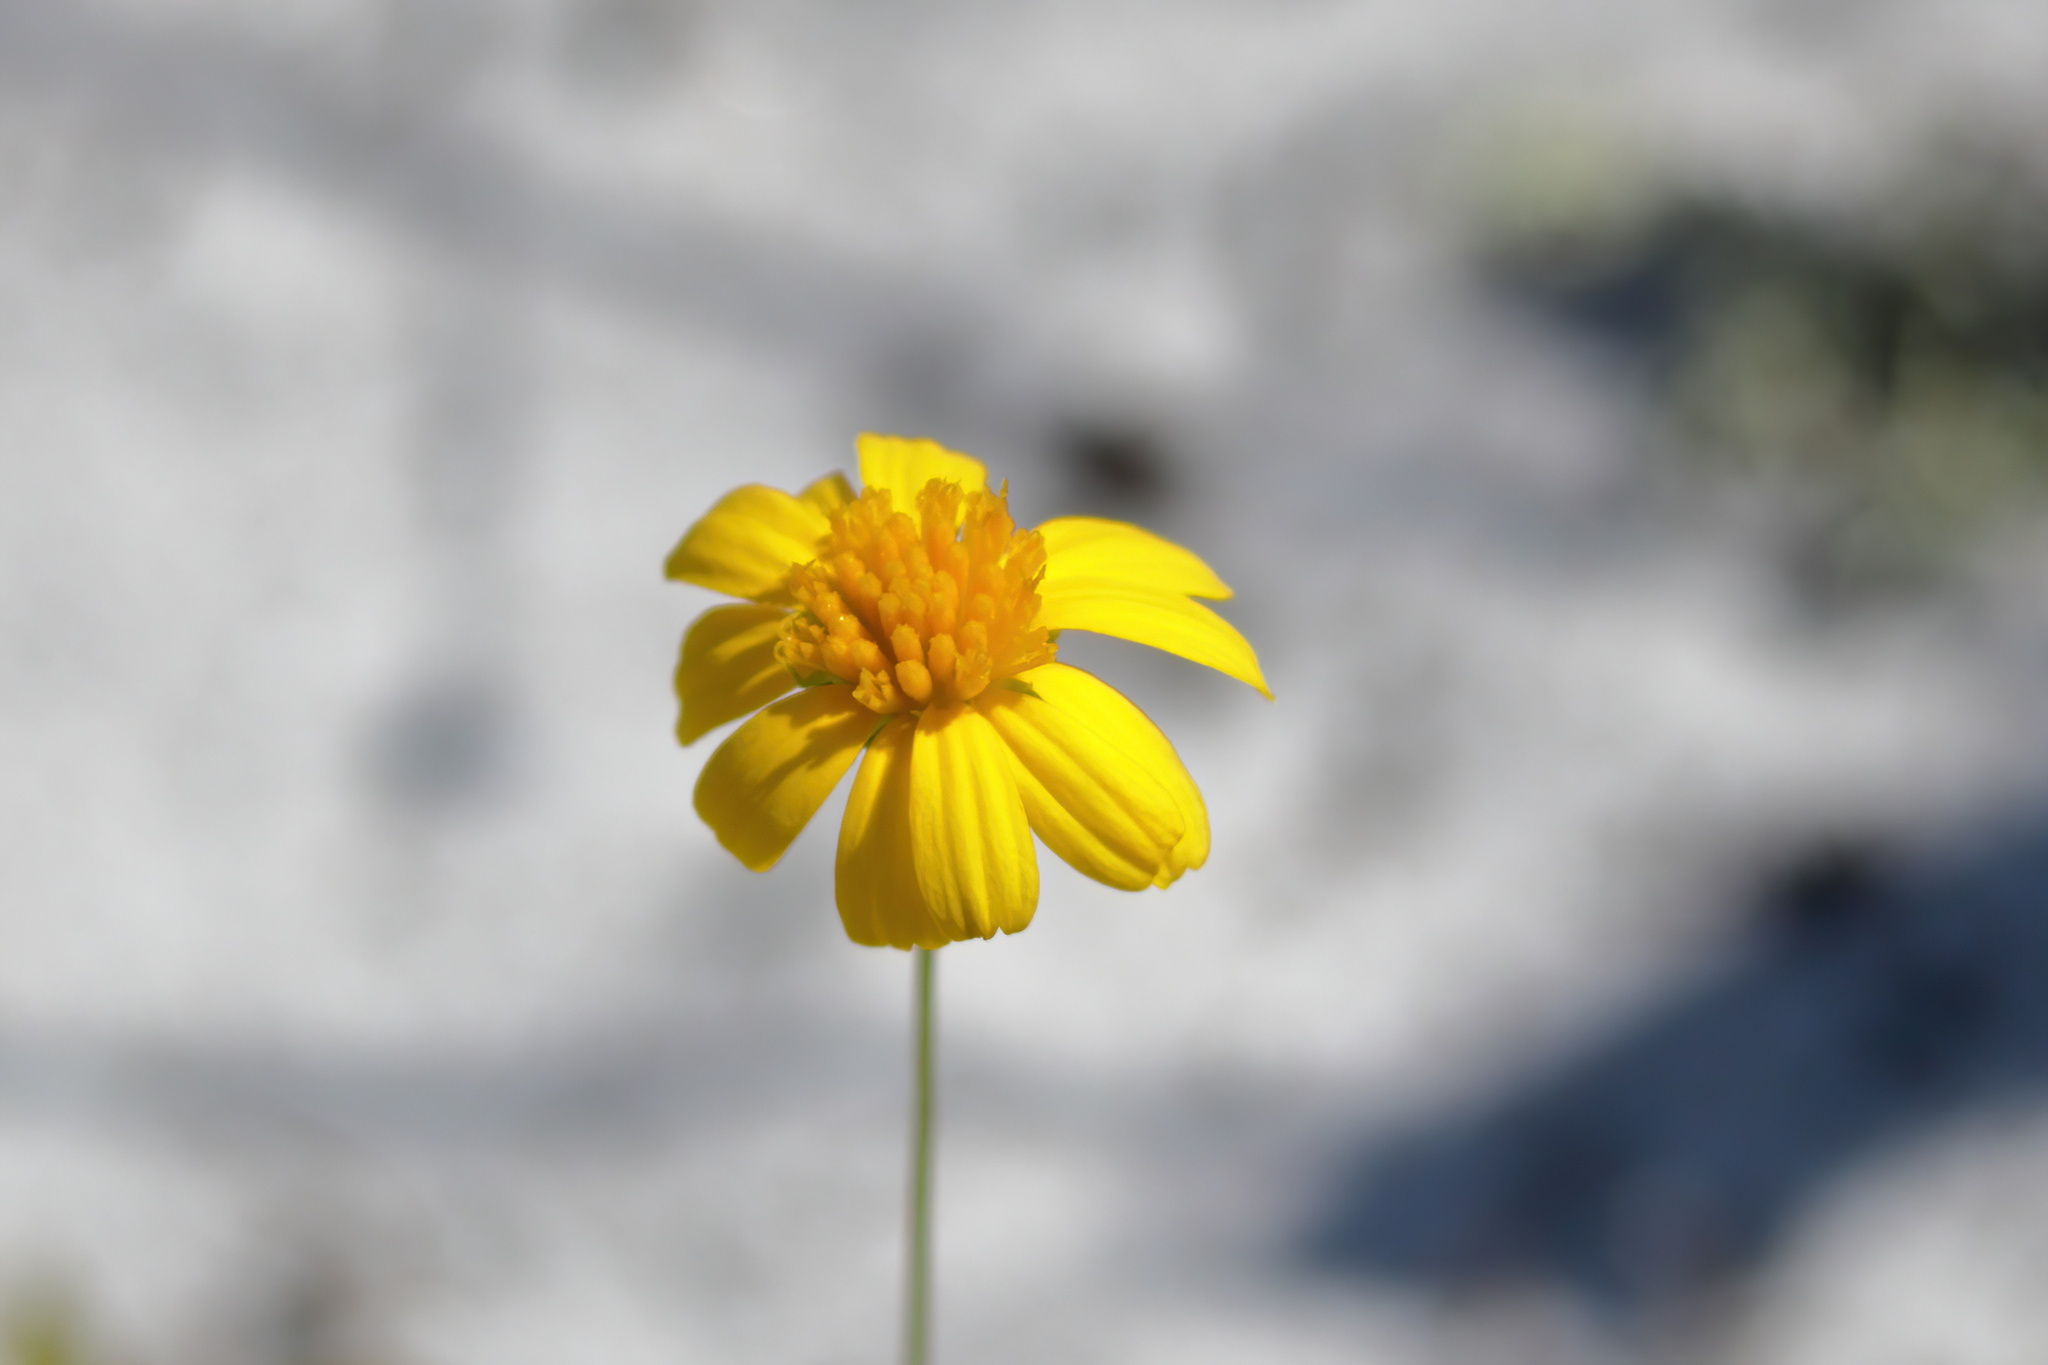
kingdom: Plantae
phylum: Tracheophyta
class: Magnoliopsida
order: Asterales
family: Asteraceae
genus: Balduina
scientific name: Balduina angustifolia
